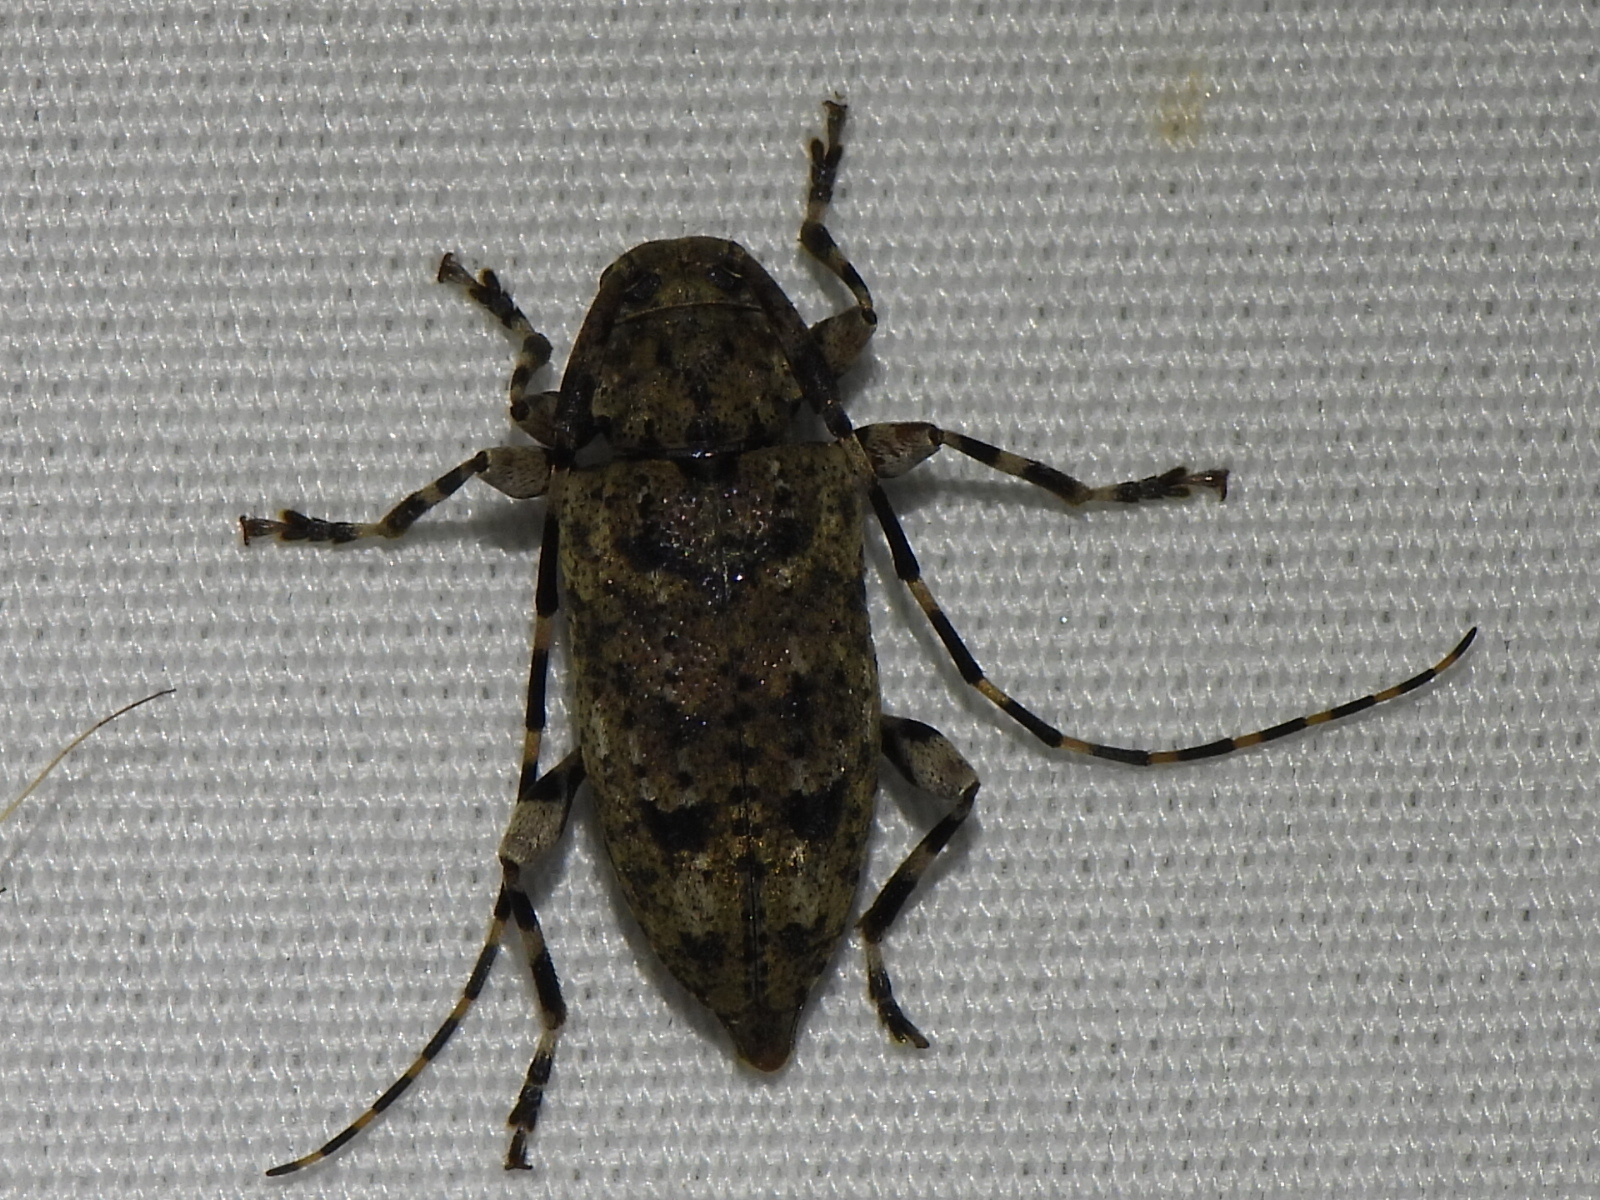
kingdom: Animalia
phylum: Arthropoda
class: Insecta
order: Coleoptera
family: Cerambycidae
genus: Astyleiopus
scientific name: Astyleiopus variegatus
